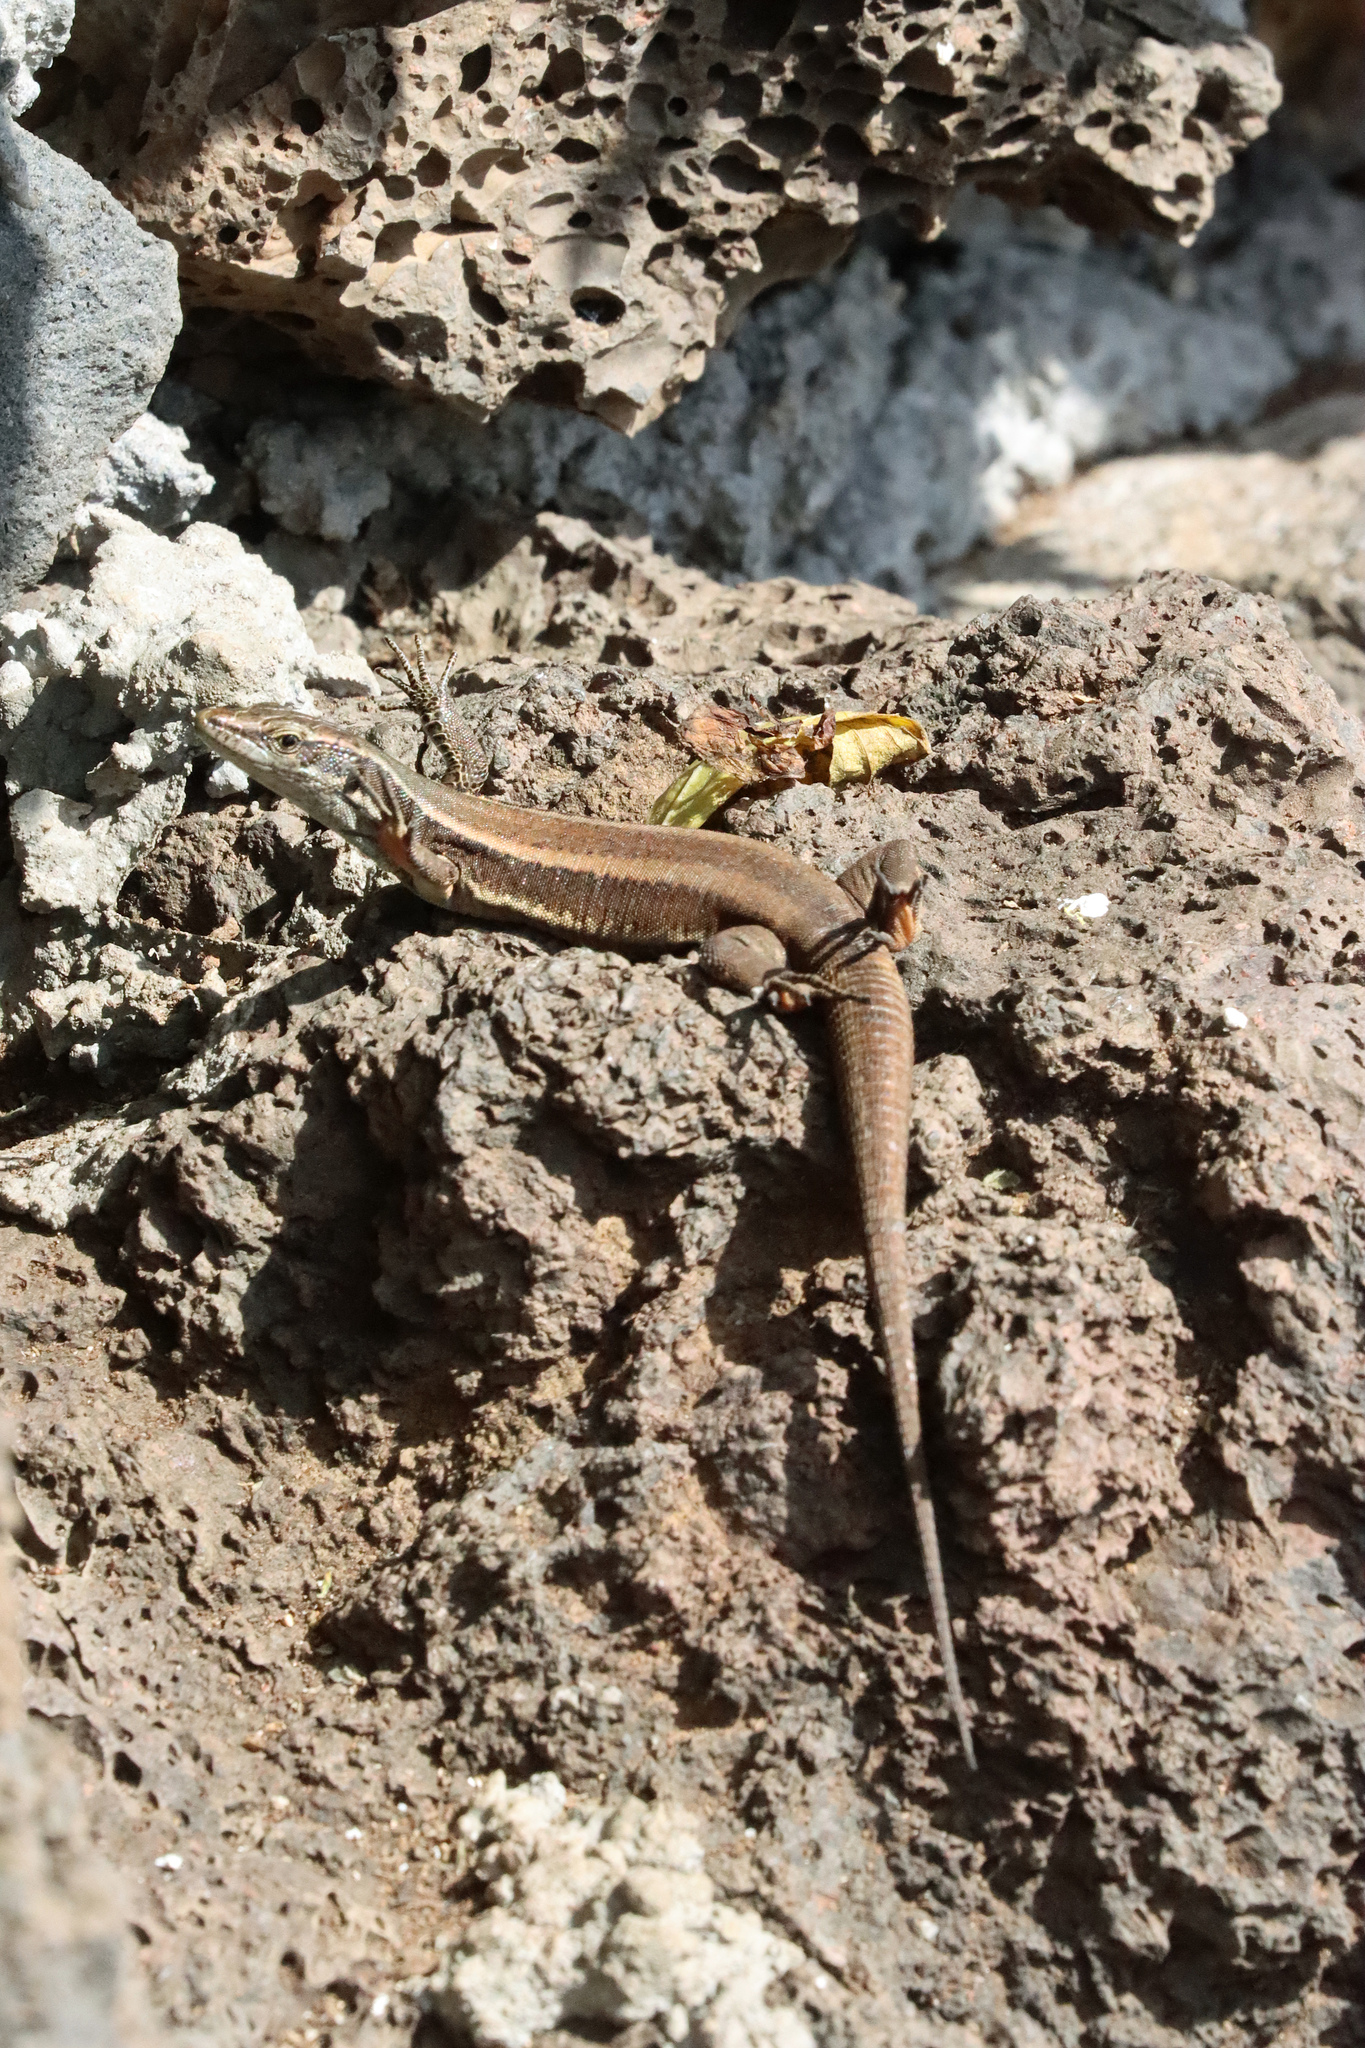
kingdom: Animalia
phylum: Chordata
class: Squamata
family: Lacertidae
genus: Teira
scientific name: Teira dugesii
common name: Madeira lizard
